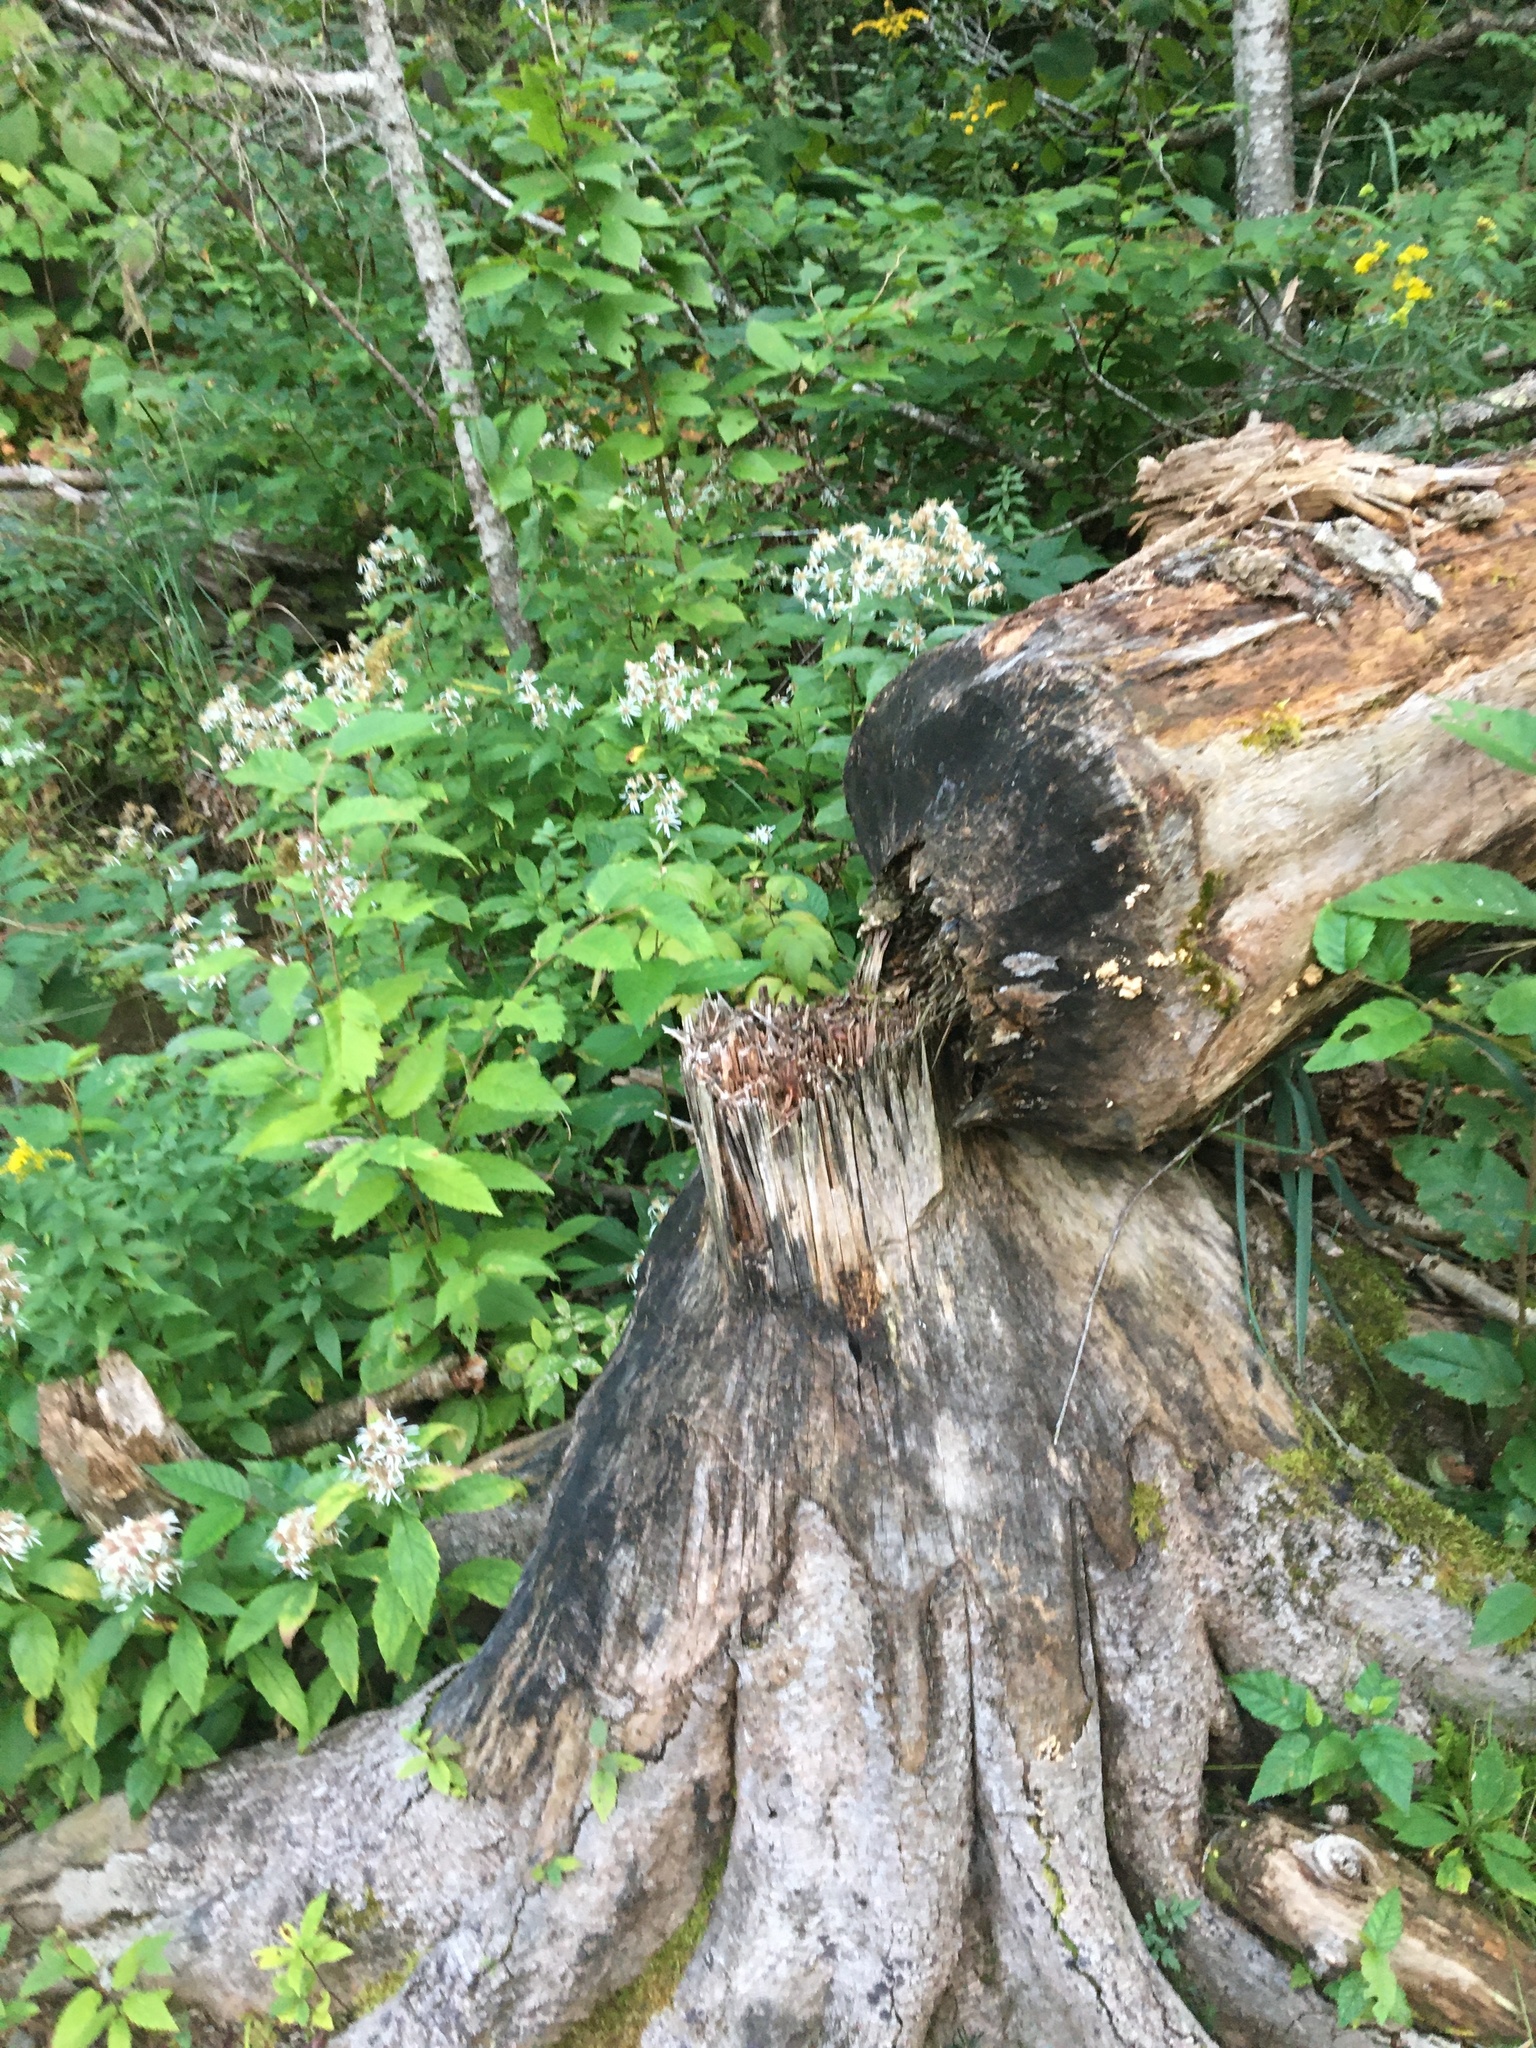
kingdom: Animalia
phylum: Chordata
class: Mammalia
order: Rodentia
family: Castoridae
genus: Castor
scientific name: Castor canadensis
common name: American beaver
